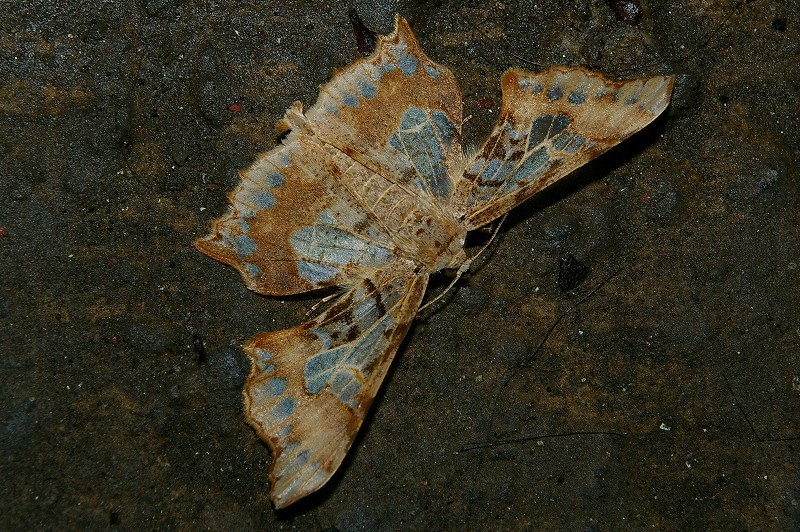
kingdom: Animalia
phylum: Arthropoda
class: Insecta
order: Lepidoptera
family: Geometridae
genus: Krananda
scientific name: Krananda semihyalina
